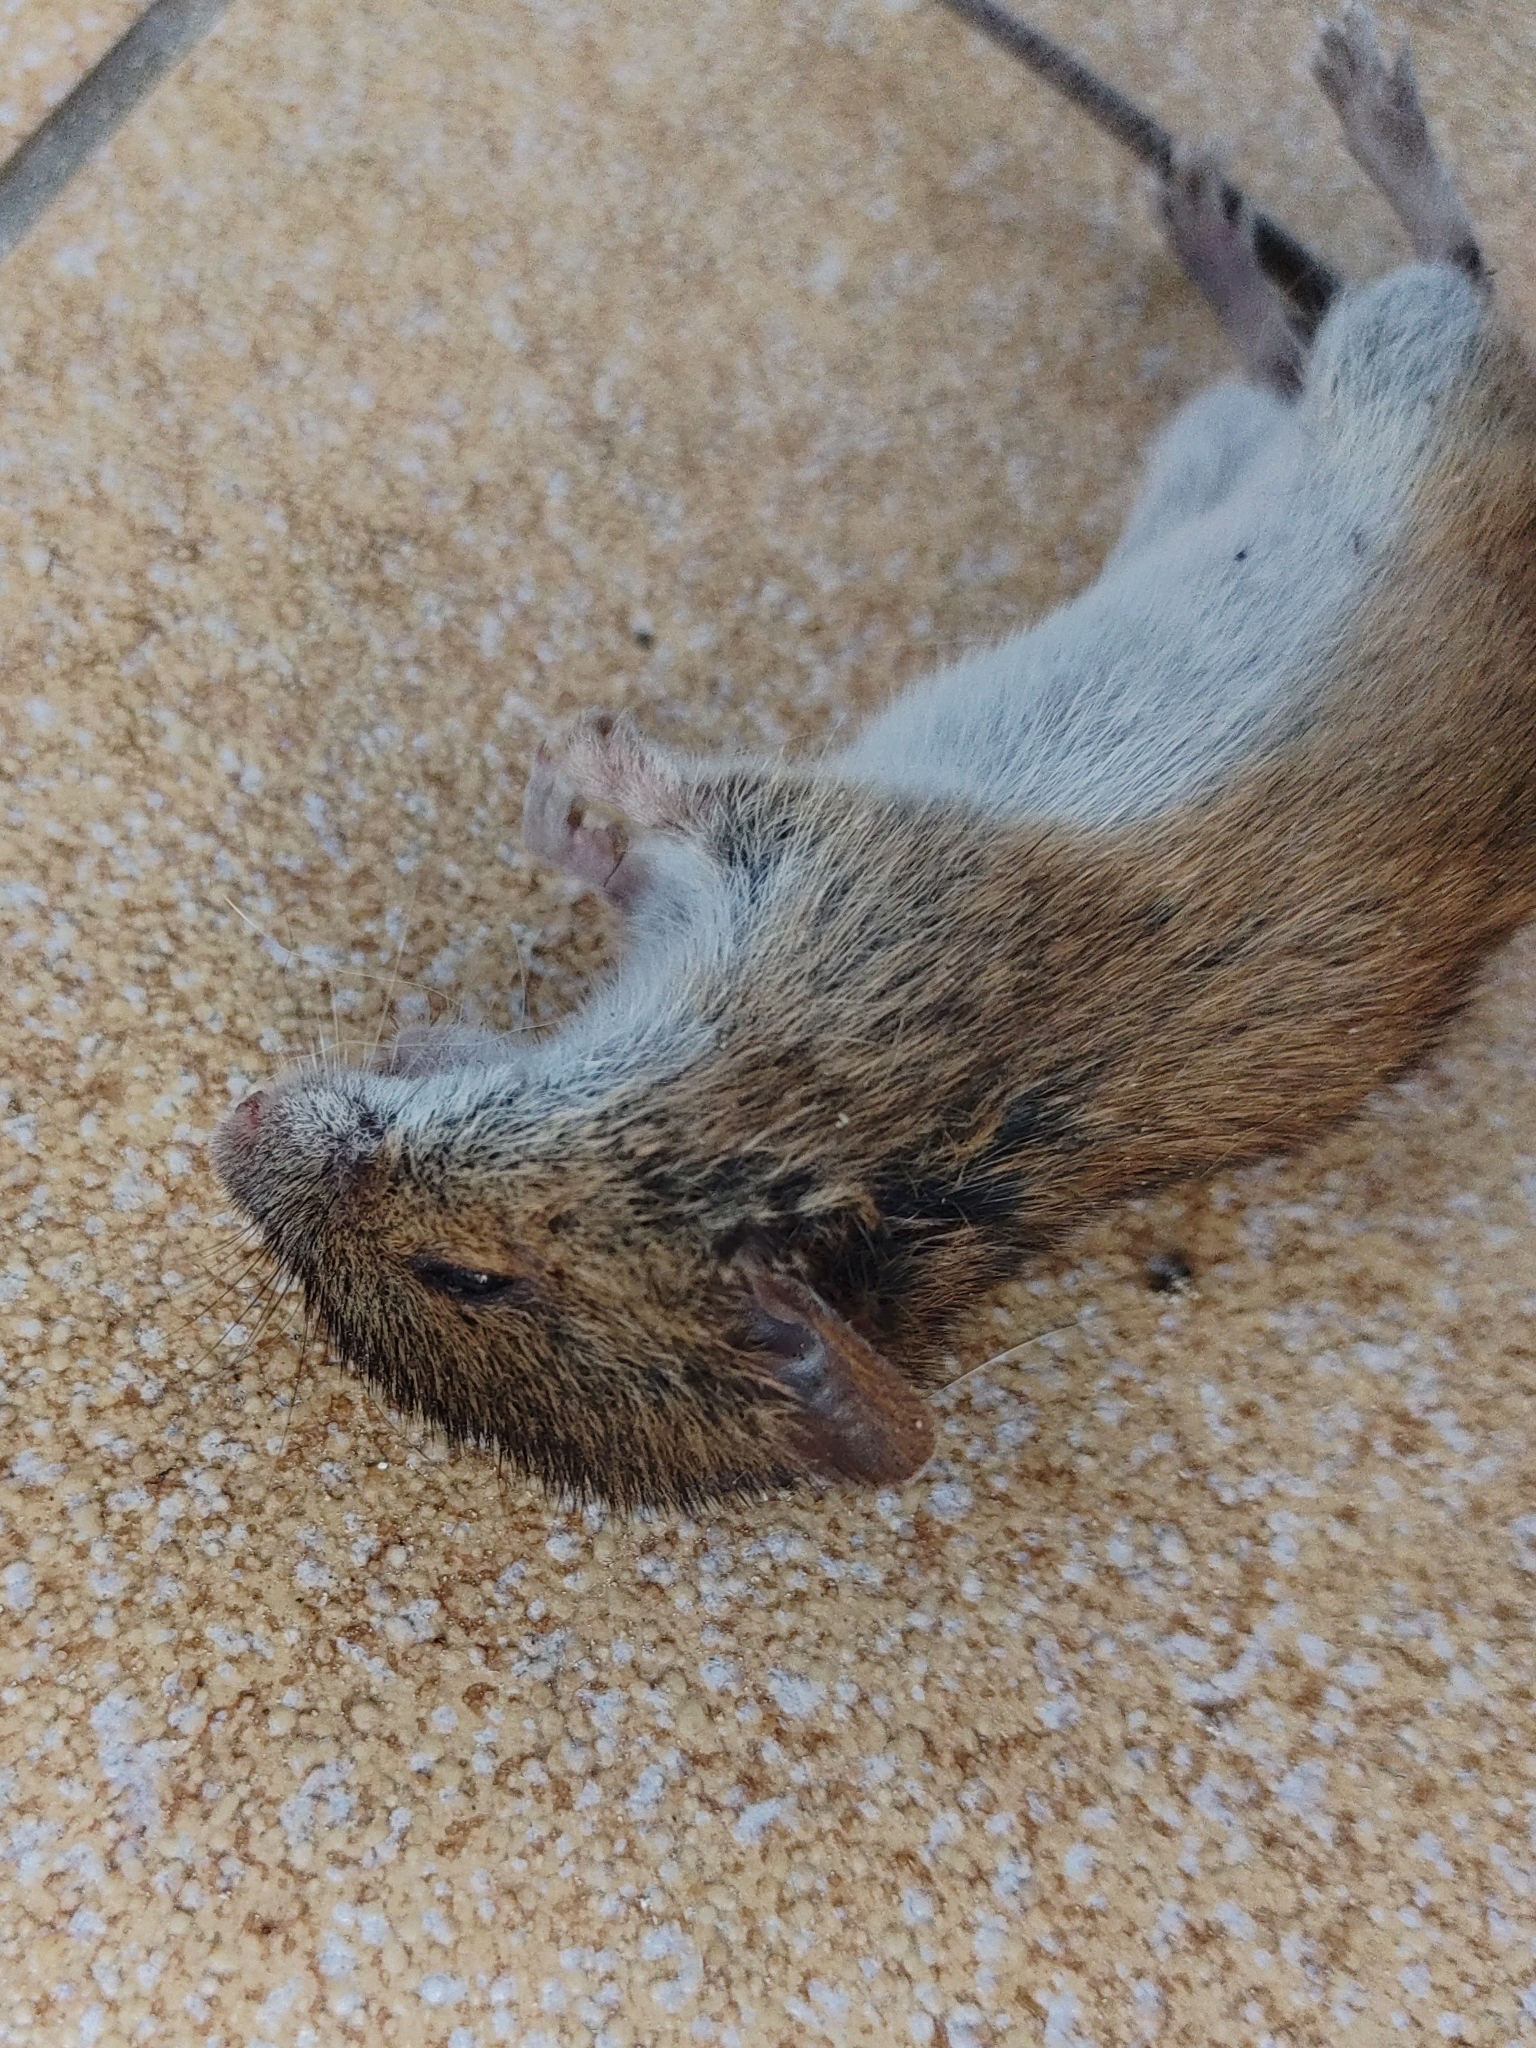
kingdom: Animalia
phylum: Chordata
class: Mammalia
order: Rodentia
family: Muridae
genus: Apodemus
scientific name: Apodemus agrarius
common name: Striped field mouse
